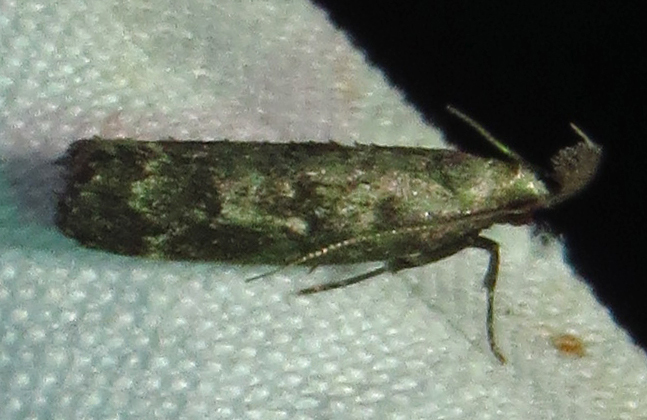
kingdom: Animalia
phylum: Arthropoda
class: Insecta
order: Lepidoptera
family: Gelechiidae
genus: Dichomeris
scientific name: Dichomeris inversella
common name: Inverse dichomeris moth
